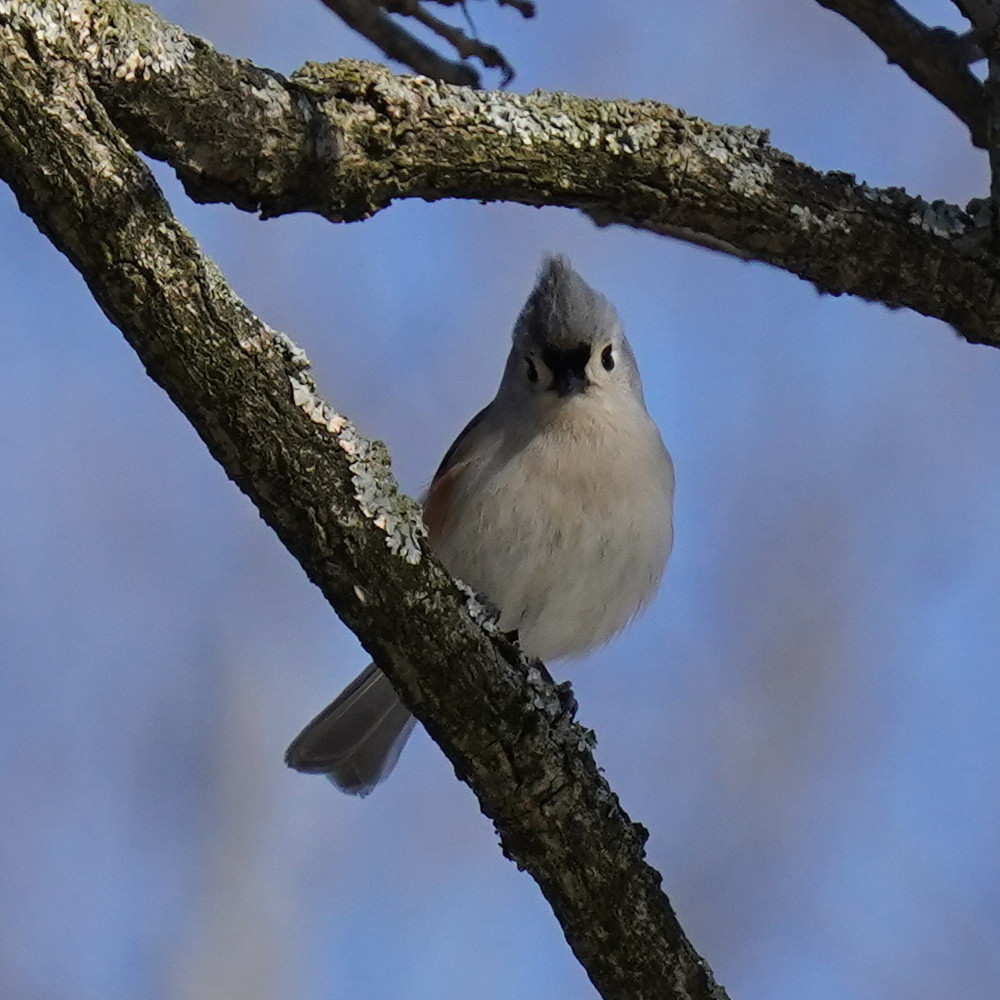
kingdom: Animalia
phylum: Chordata
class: Aves
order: Passeriformes
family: Paridae
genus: Baeolophus
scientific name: Baeolophus bicolor
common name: Tufted titmouse
